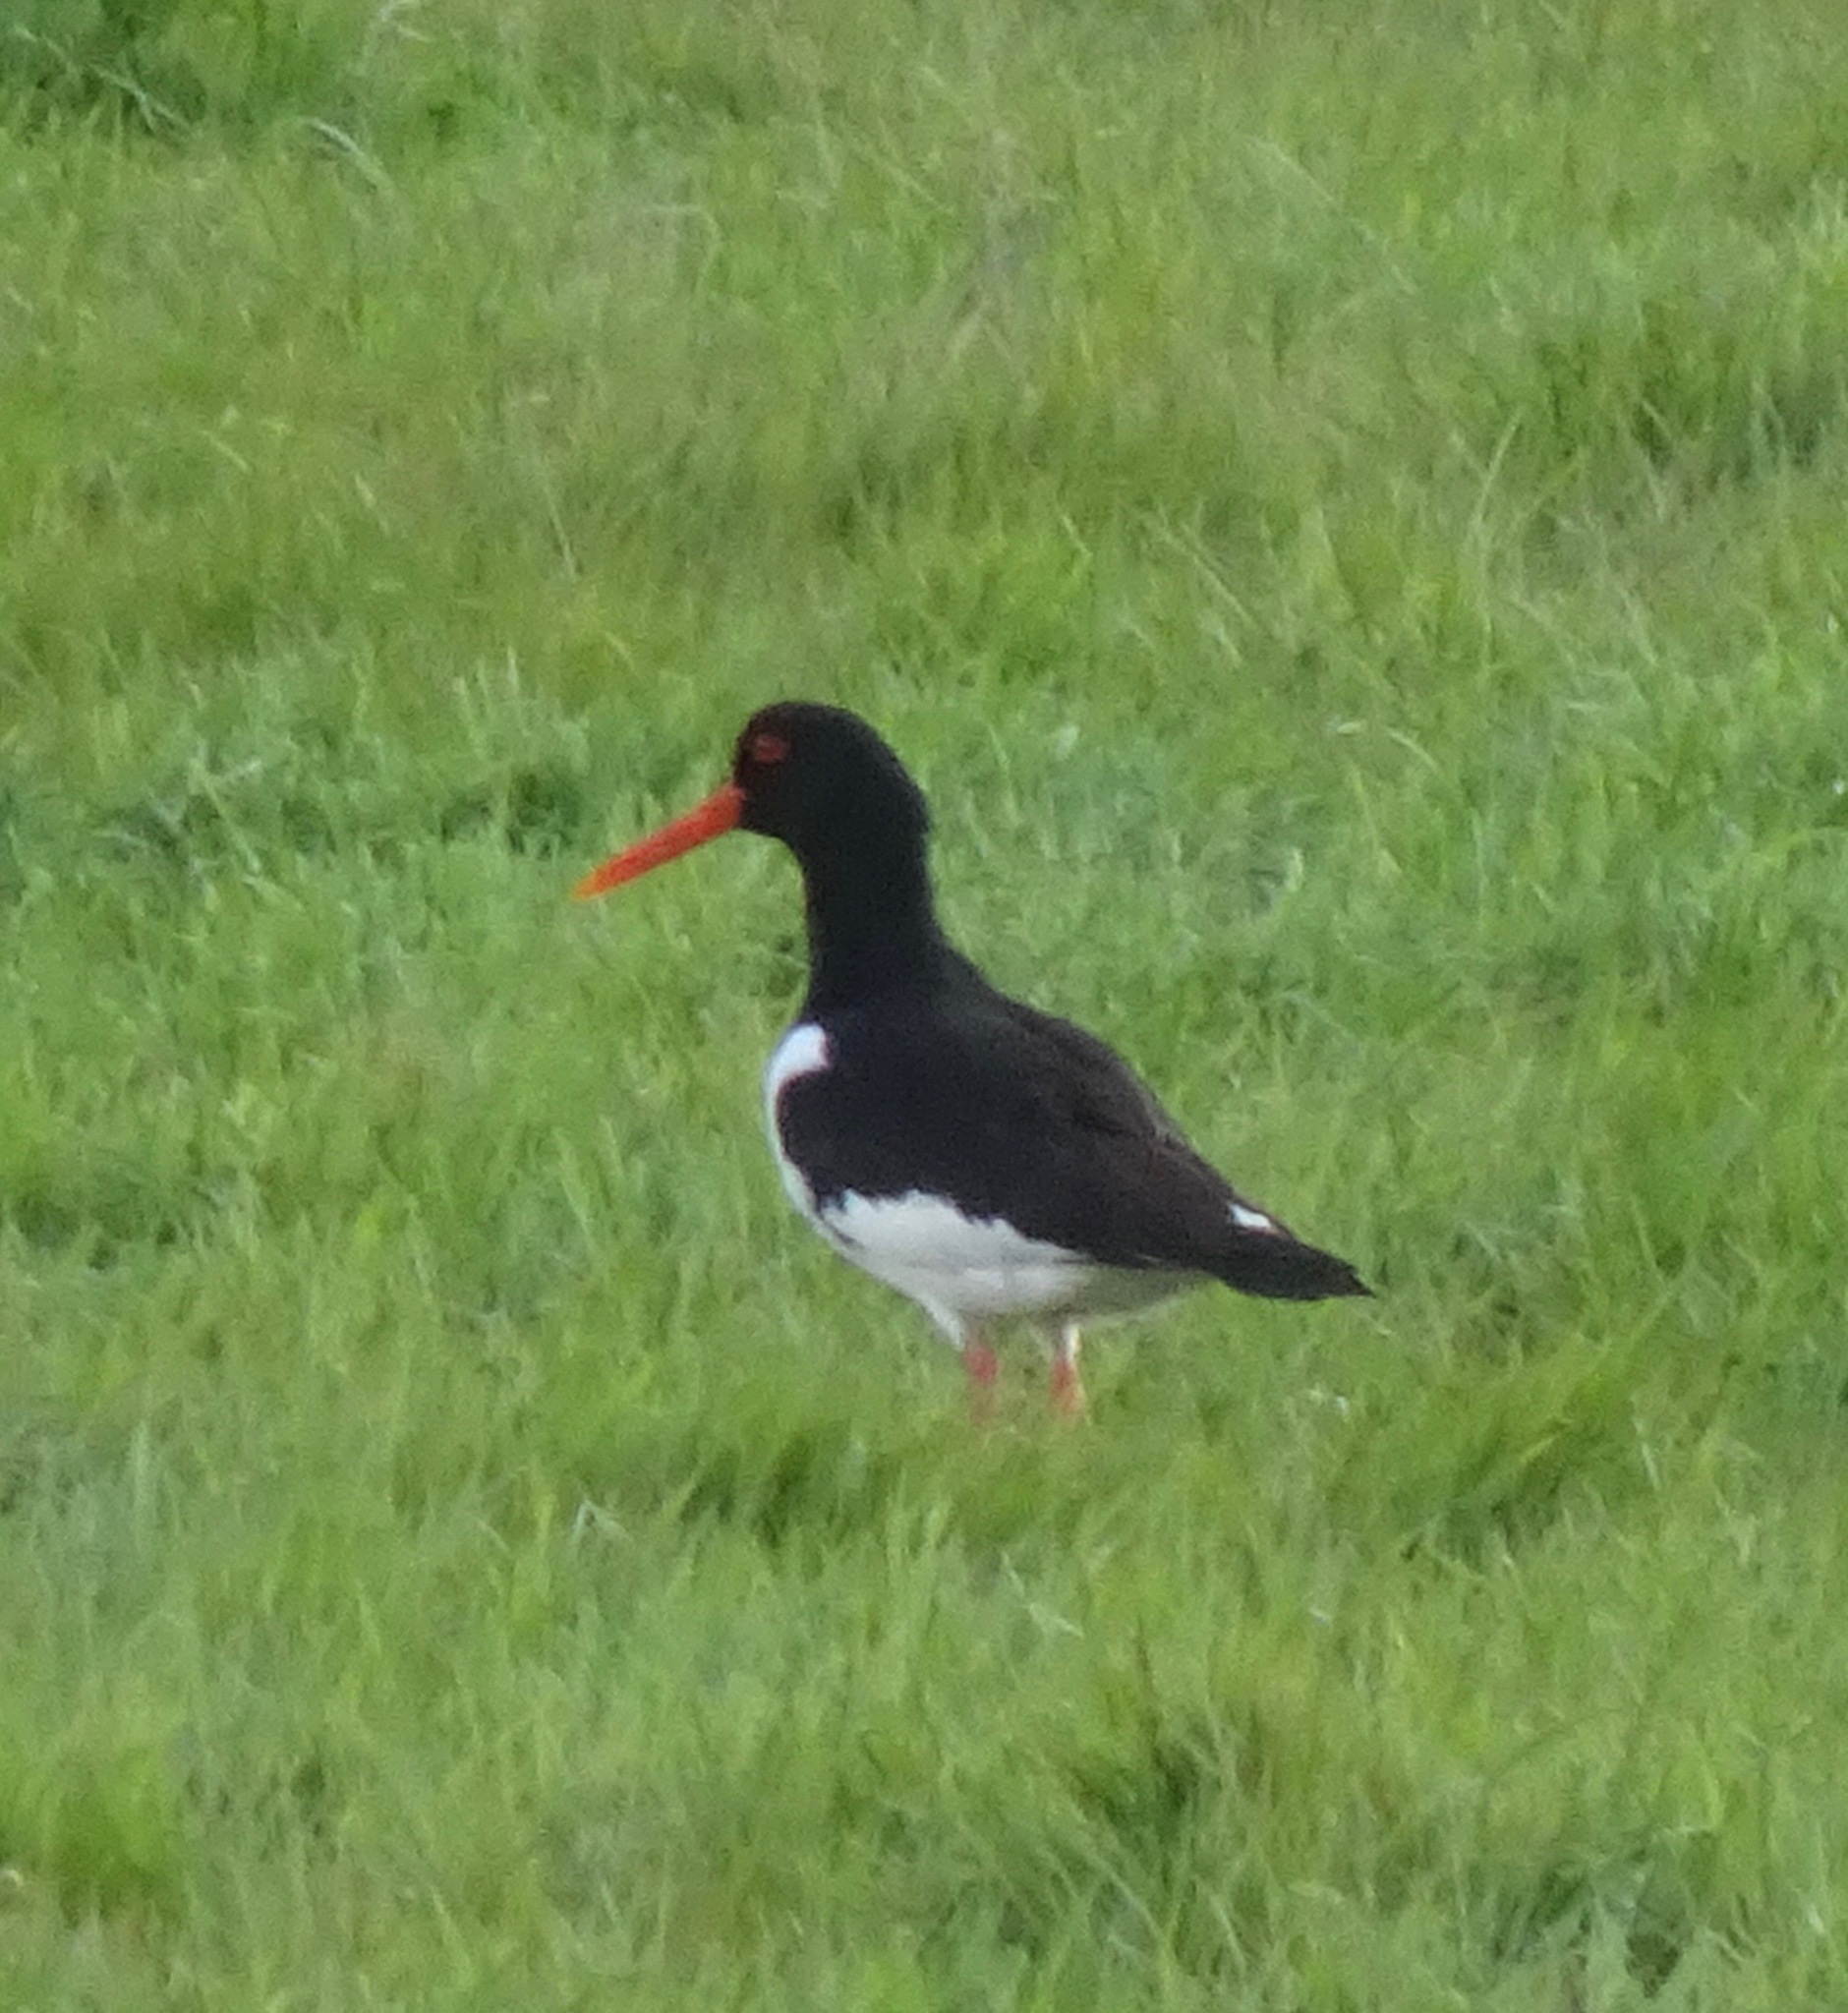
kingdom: Animalia
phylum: Chordata
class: Aves
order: Charadriiformes
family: Haematopodidae
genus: Haematopus
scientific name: Haematopus ostralegus
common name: Eurasian oystercatcher
